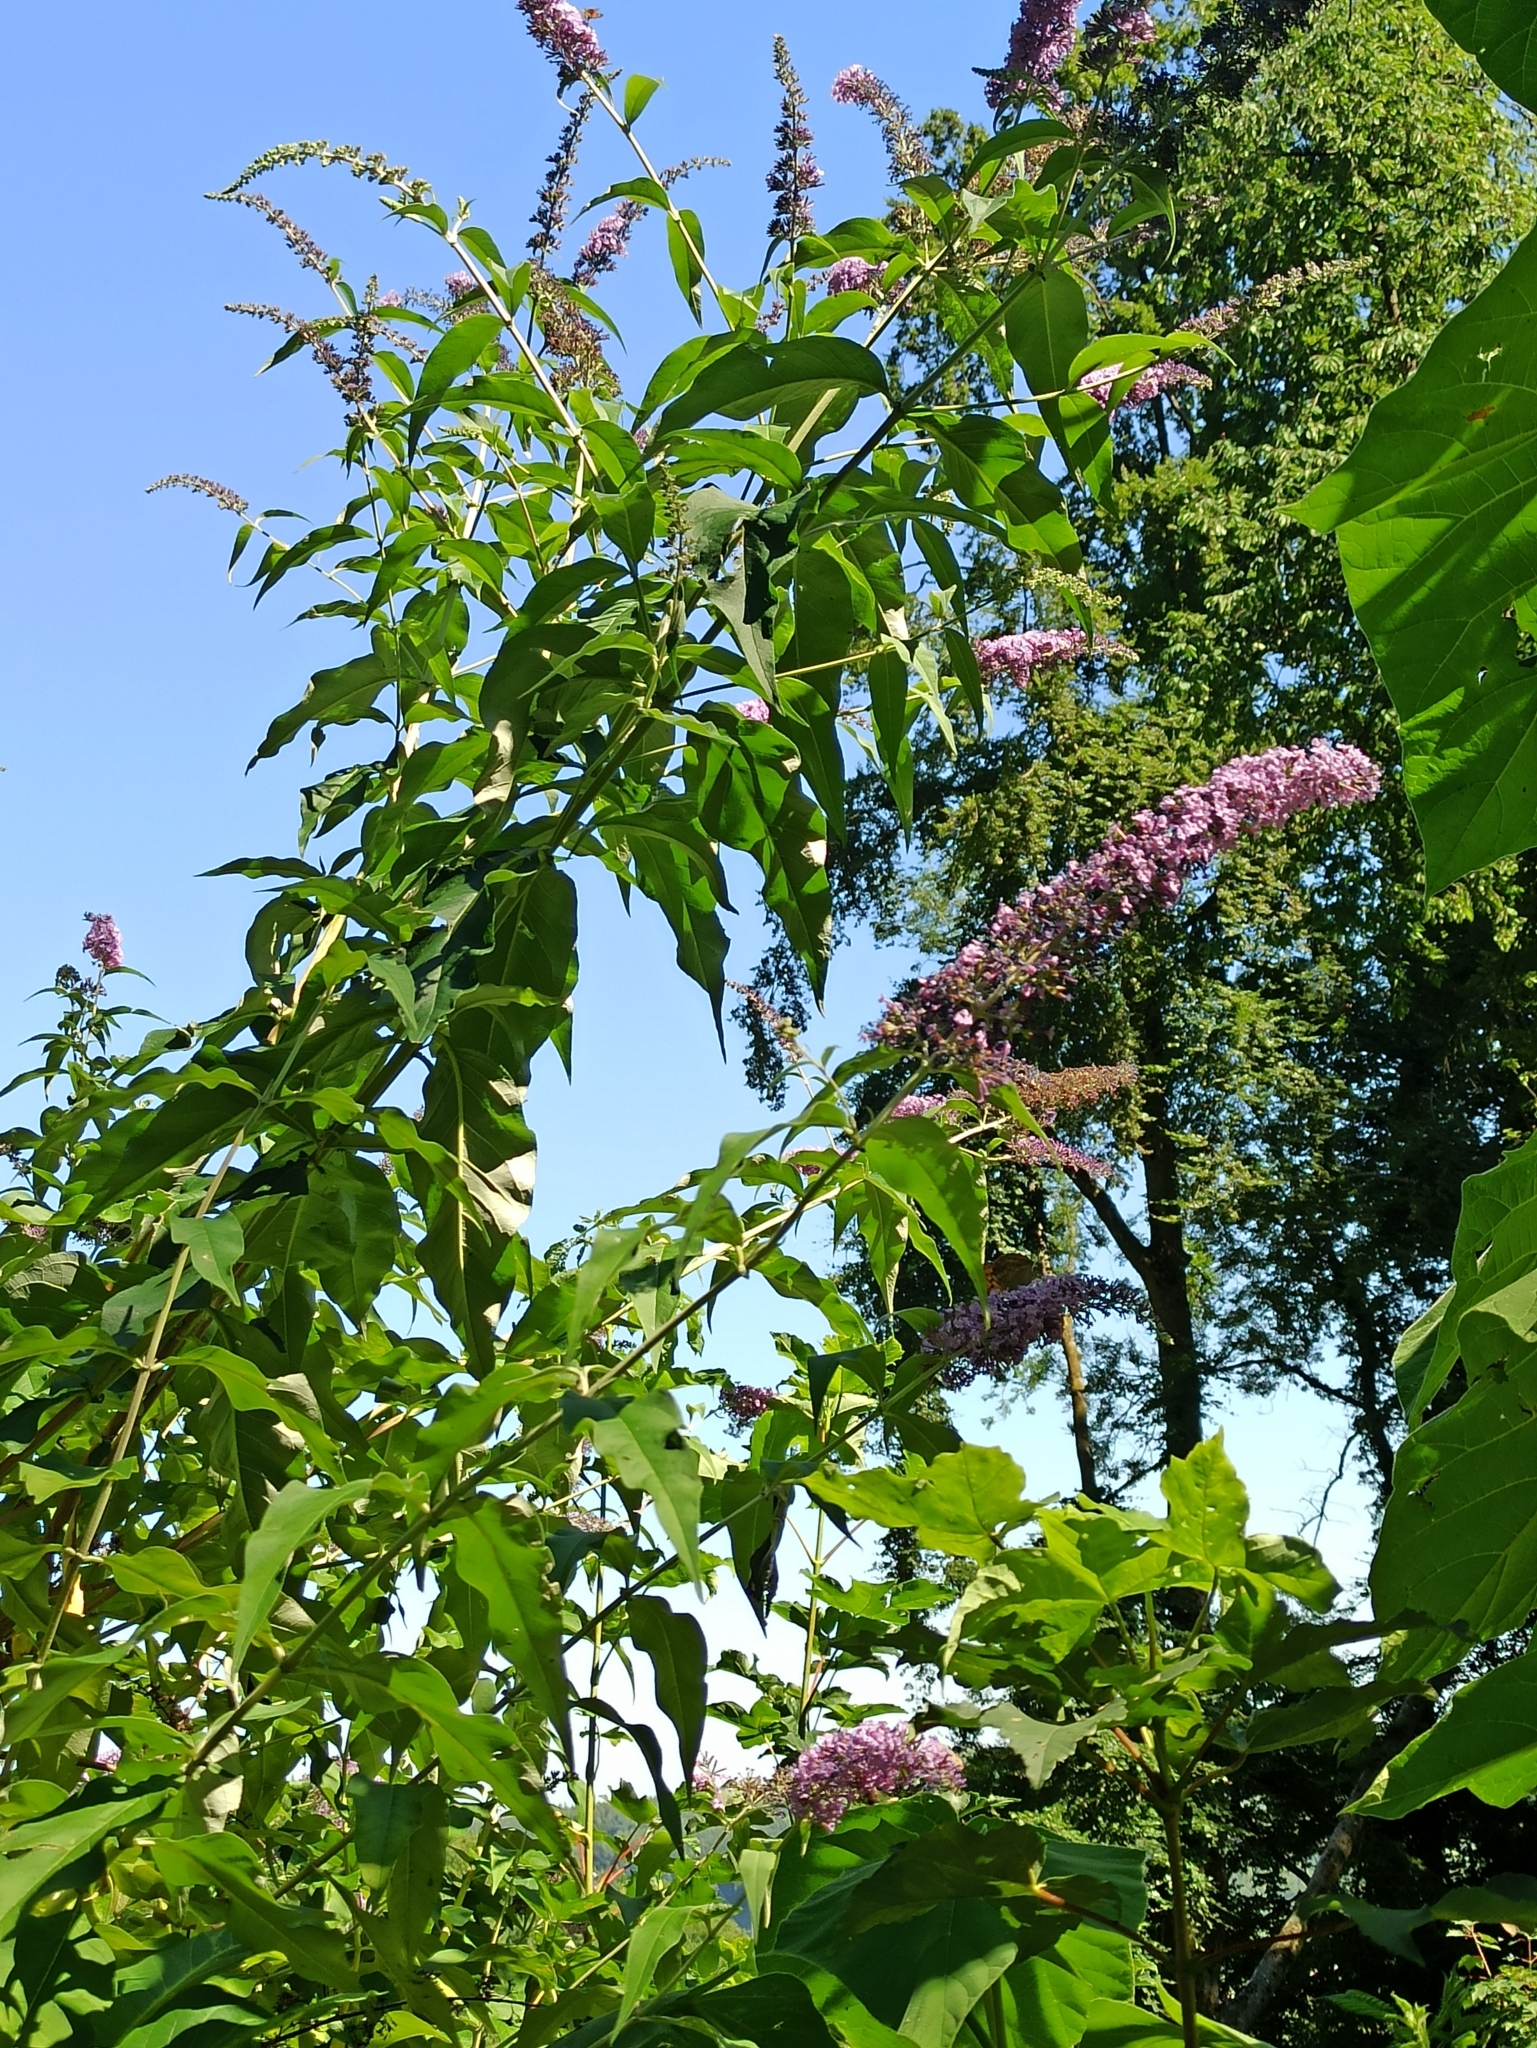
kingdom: Plantae
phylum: Tracheophyta
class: Magnoliopsida
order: Lamiales
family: Scrophulariaceae
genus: Buddleja
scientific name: Buddleja davidii
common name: Butterfly-bush
